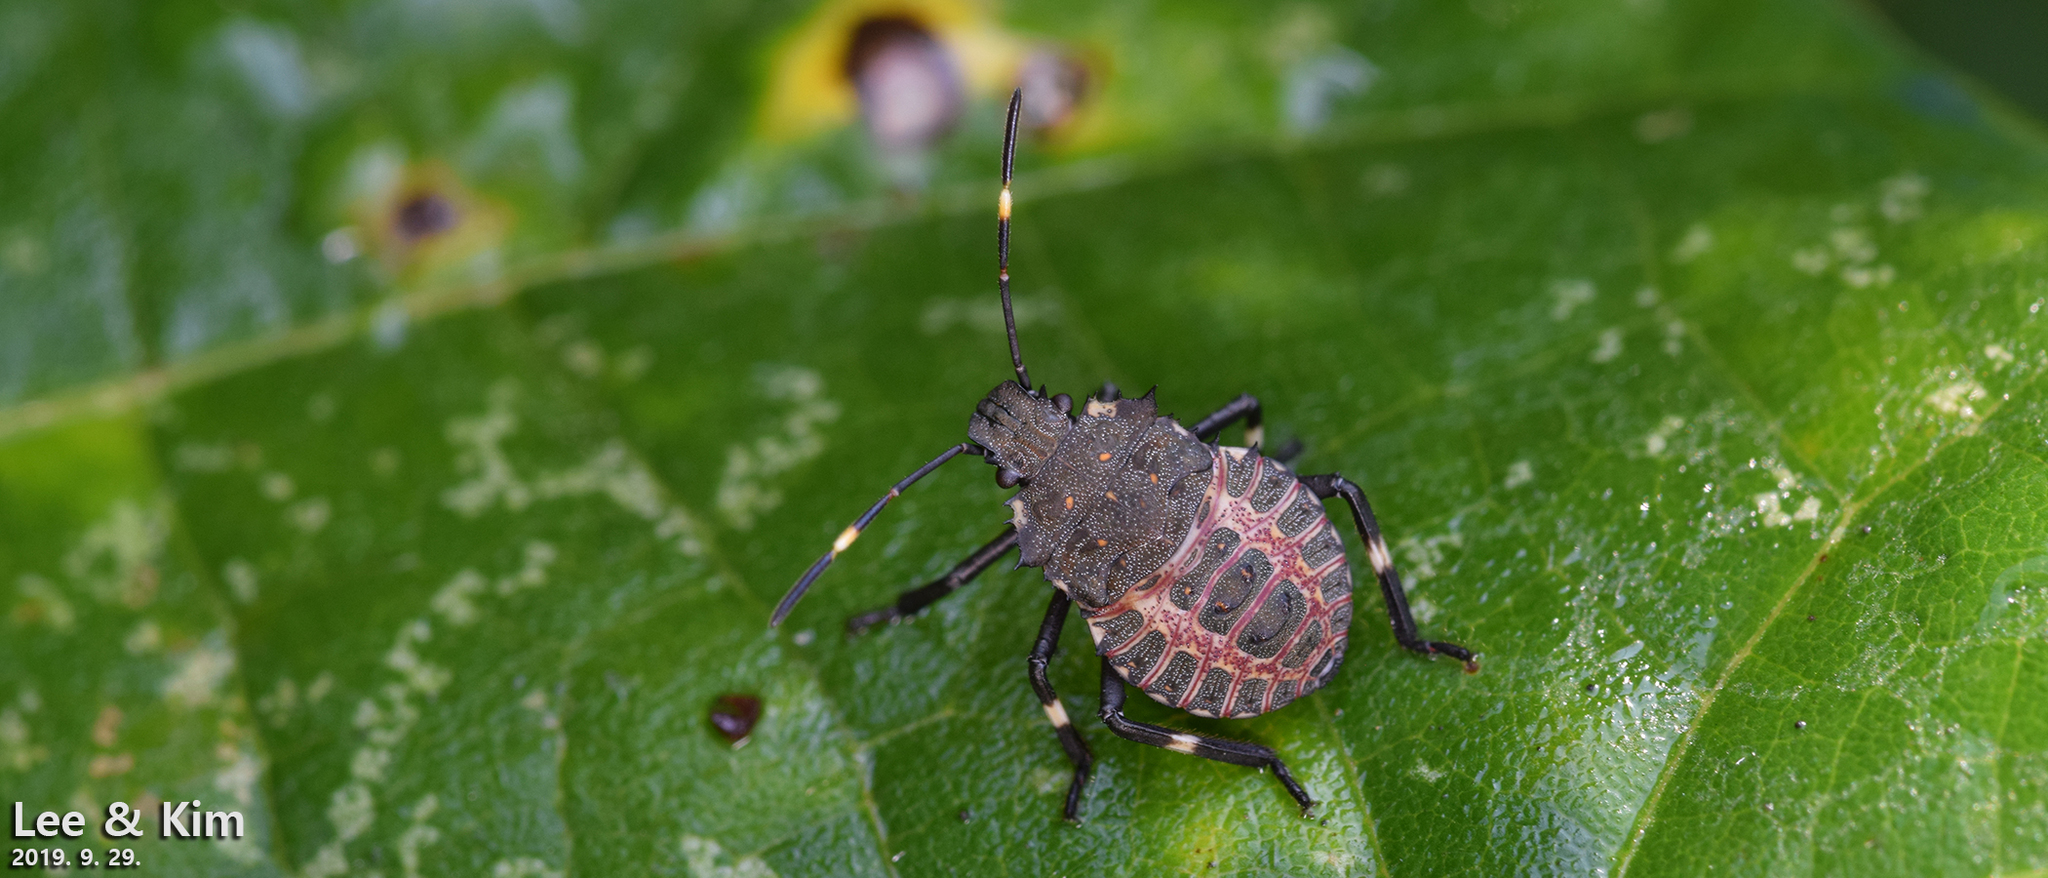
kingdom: Animalia
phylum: Arthropoda
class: Insecta
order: Hemiptera
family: Pentatomidae
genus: Halyomorpha
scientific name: Halyomorpha halys
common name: Brown marmorated stink bug
